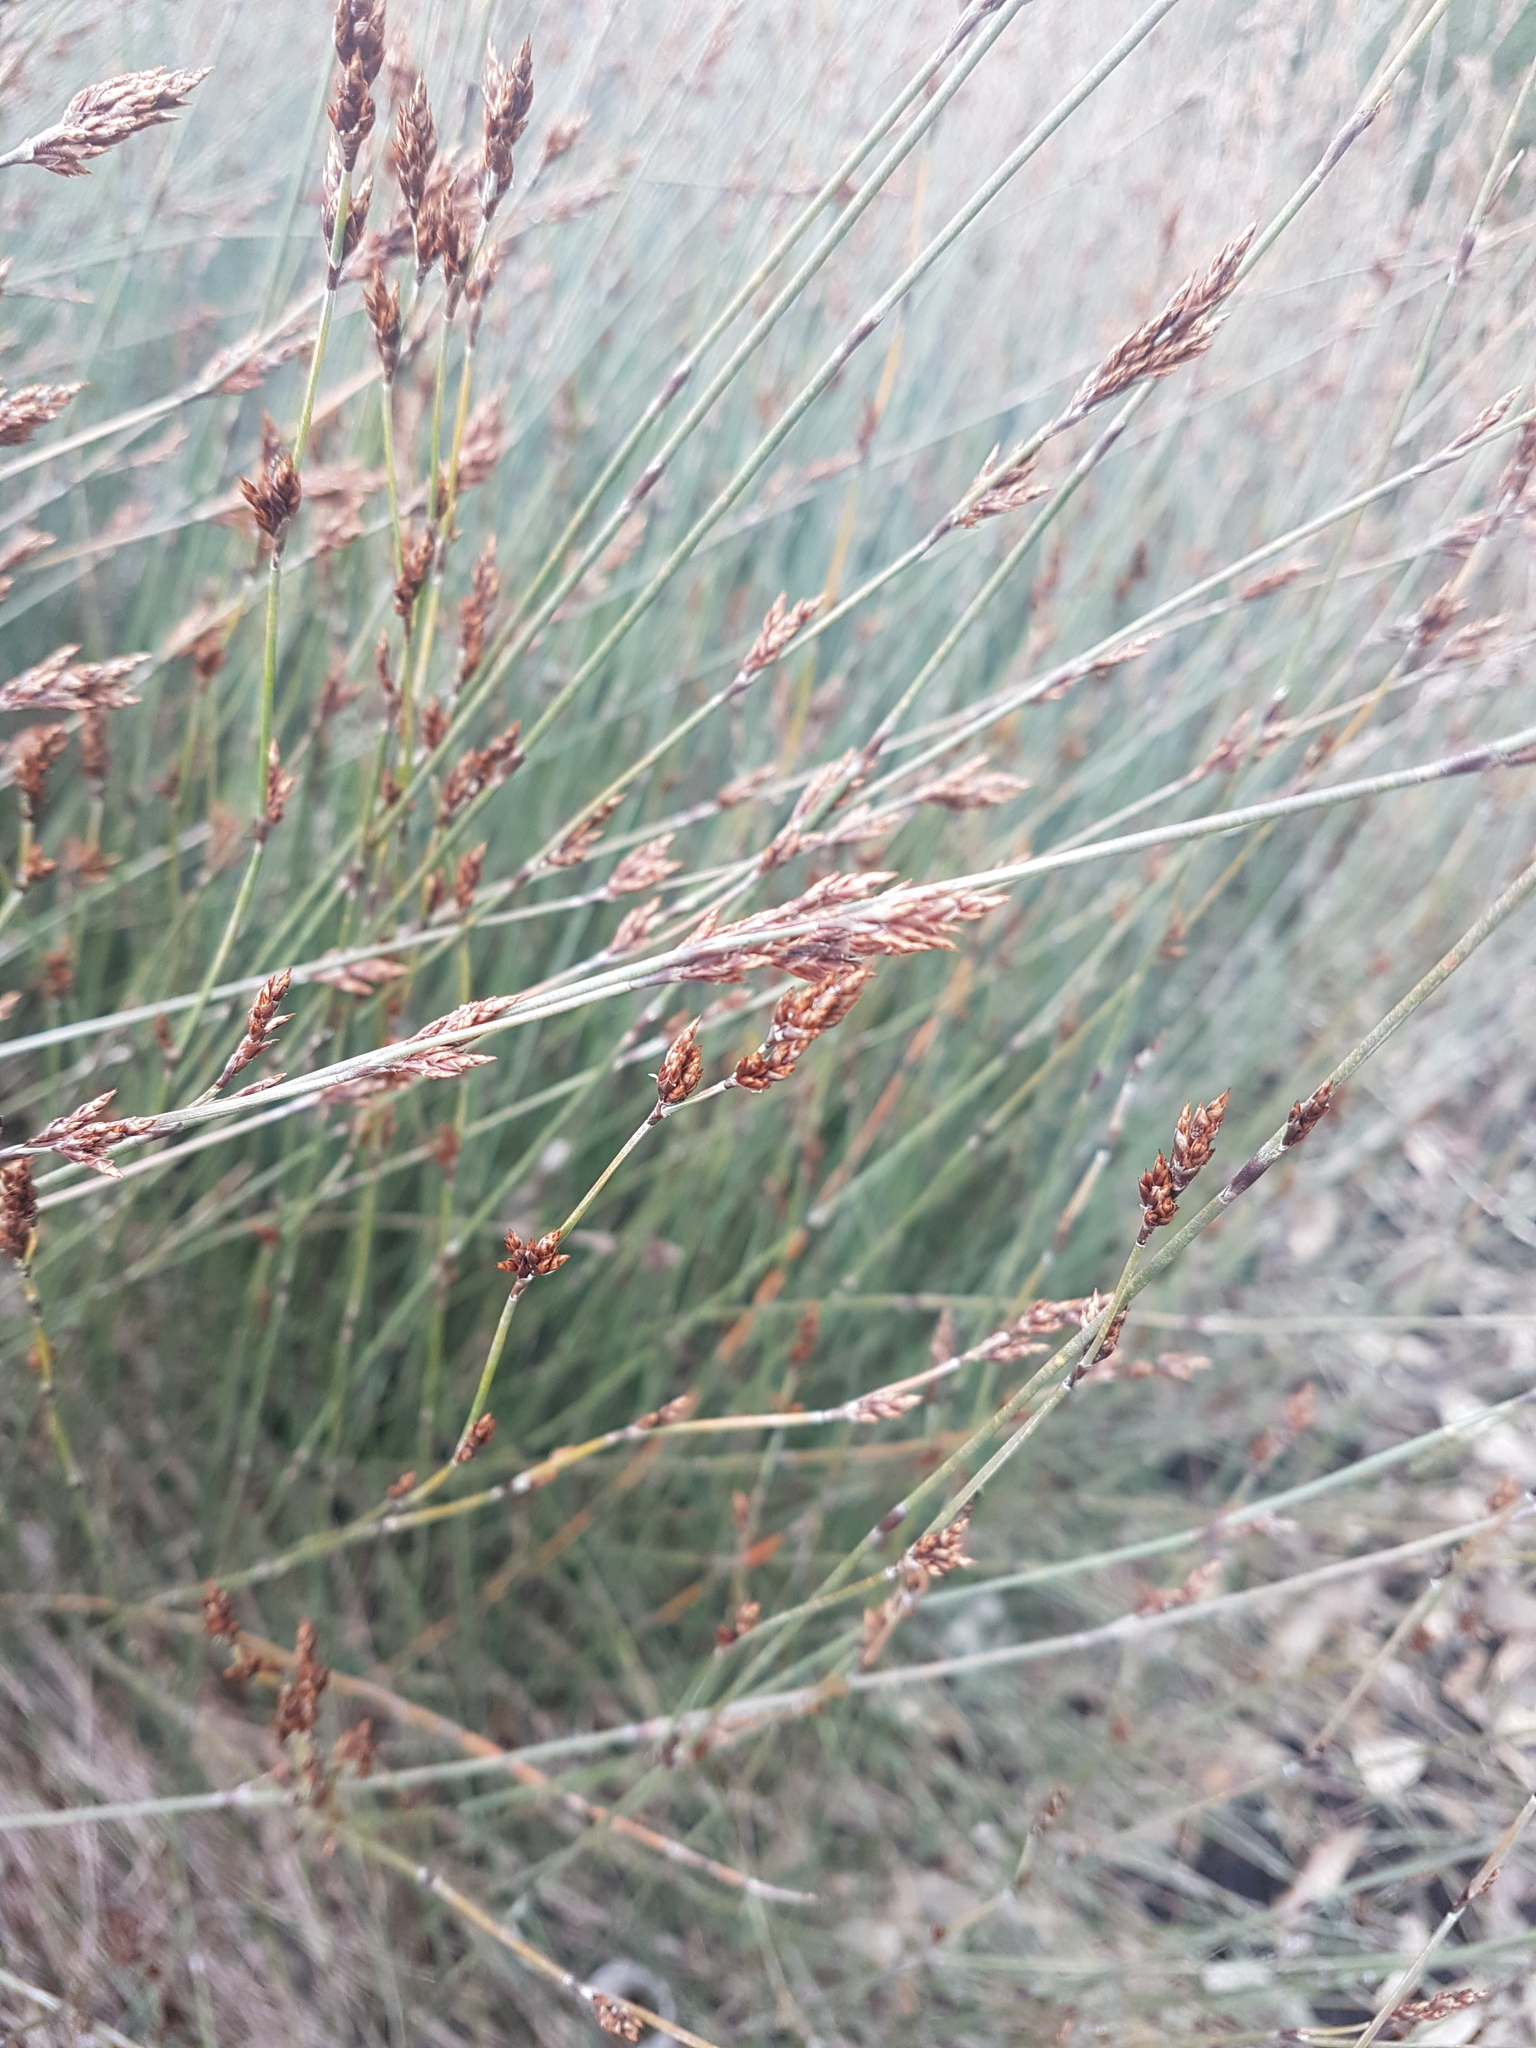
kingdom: Plantae
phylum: Tracheophyta
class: Liliopsida
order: Poales
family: Restionaceae
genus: Apodasmia
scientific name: Apodasmia similis
